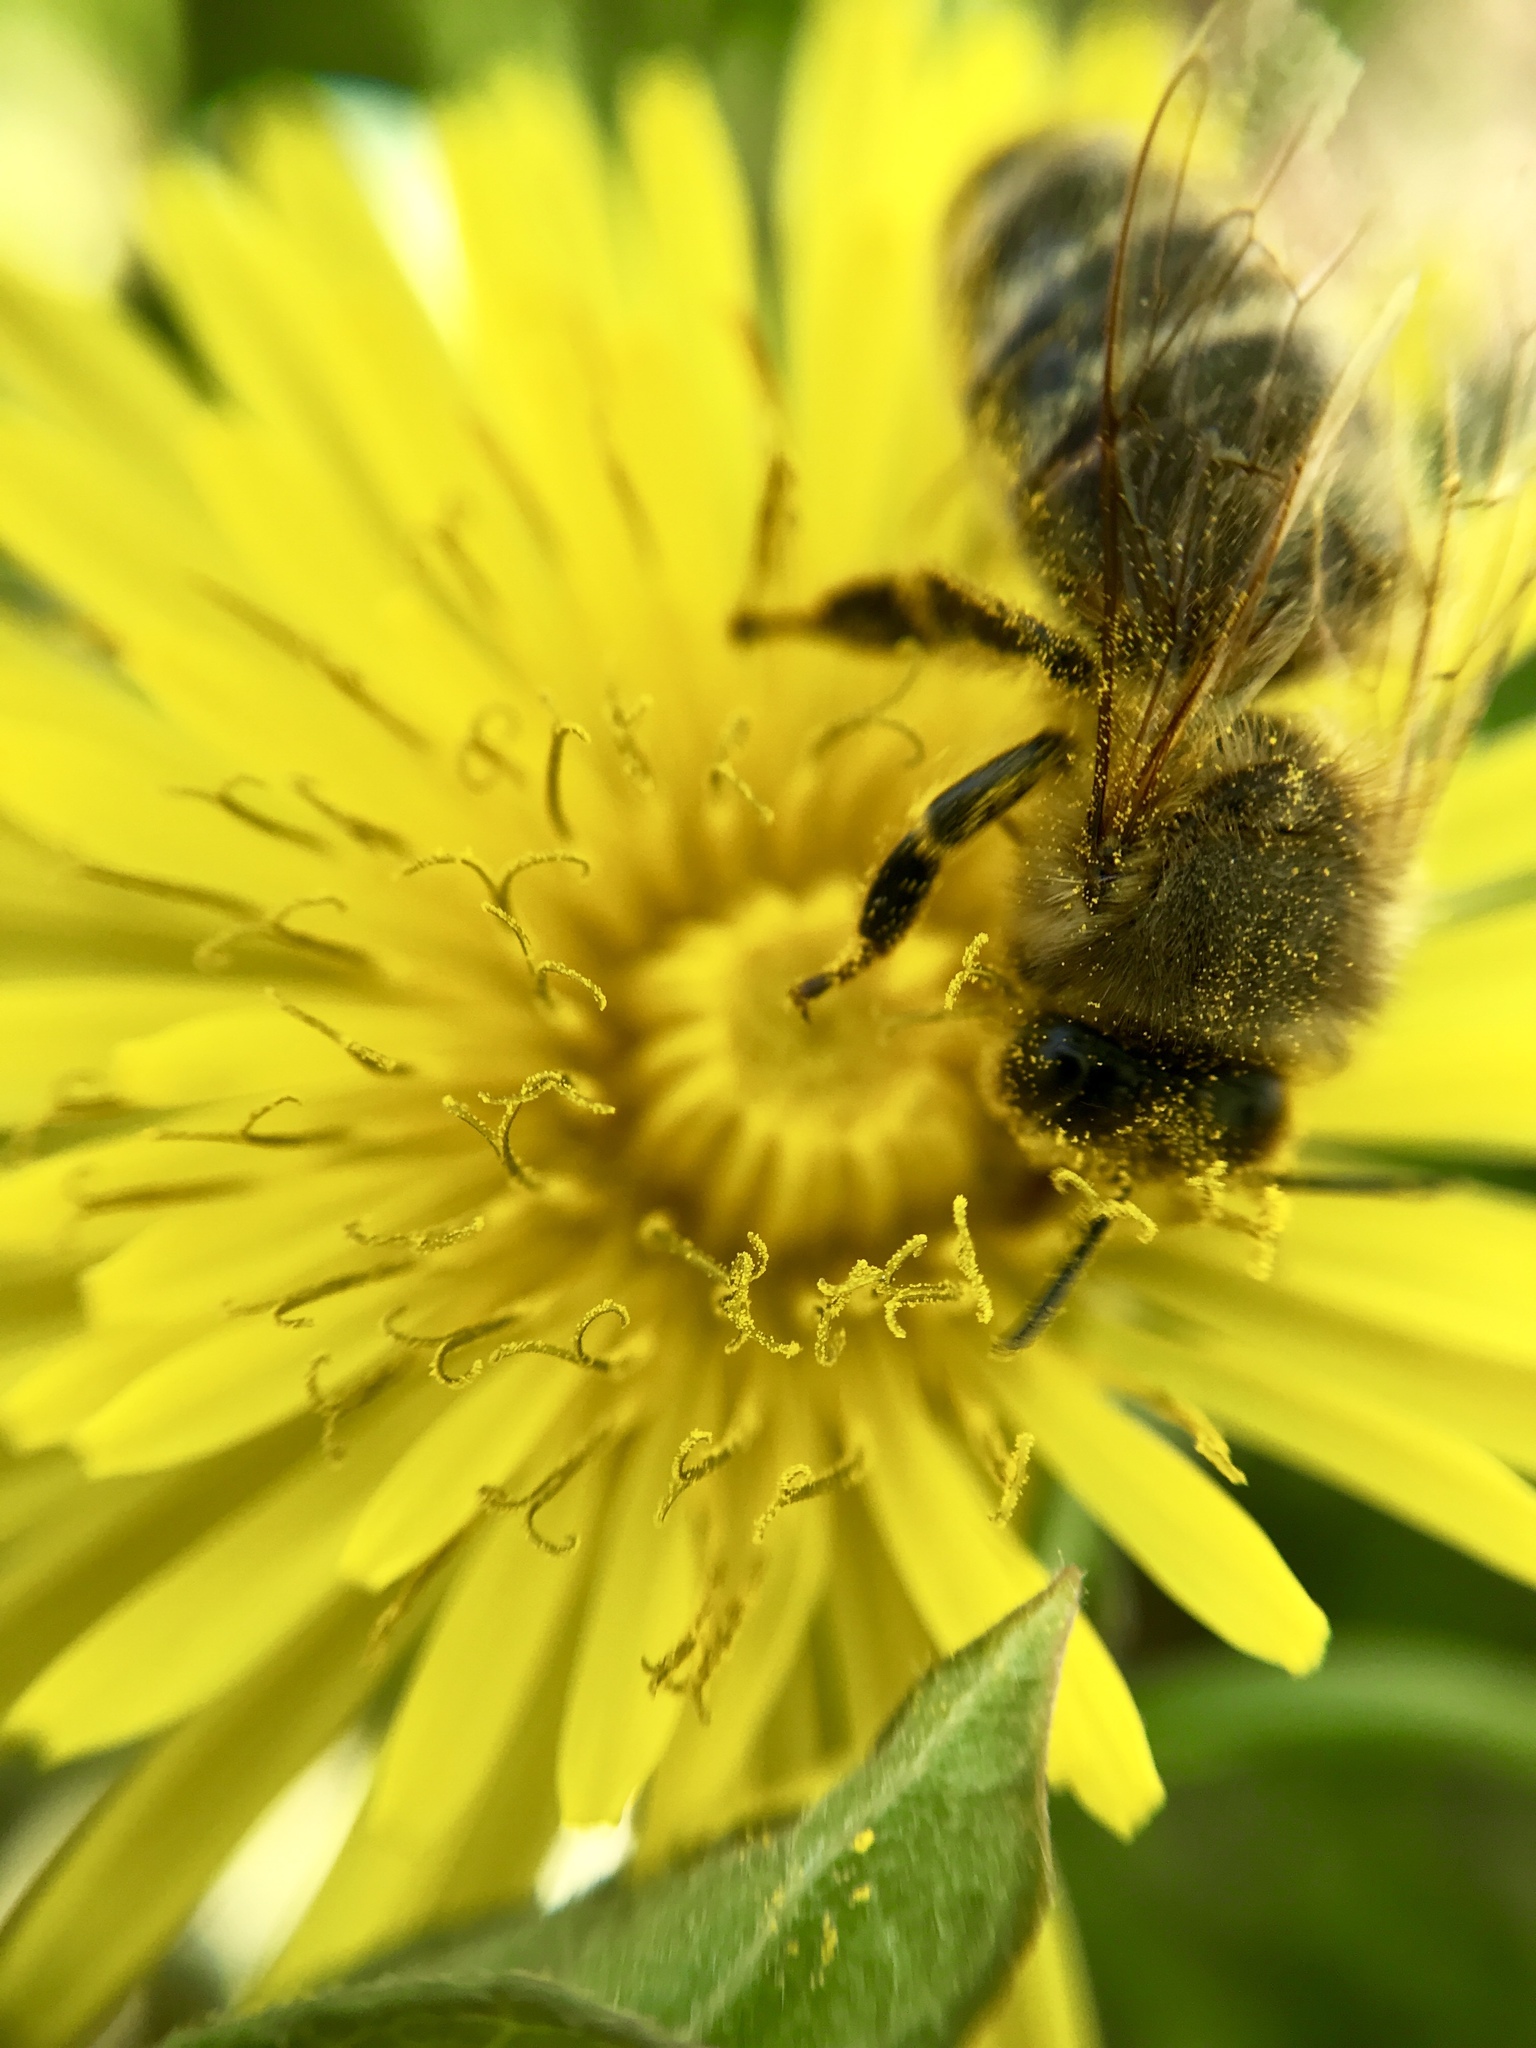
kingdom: Animalia
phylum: Arthropoda
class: Insecta
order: Hymenoptera
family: Apidae
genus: Apis
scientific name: Apis mellifera
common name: Honey bee
